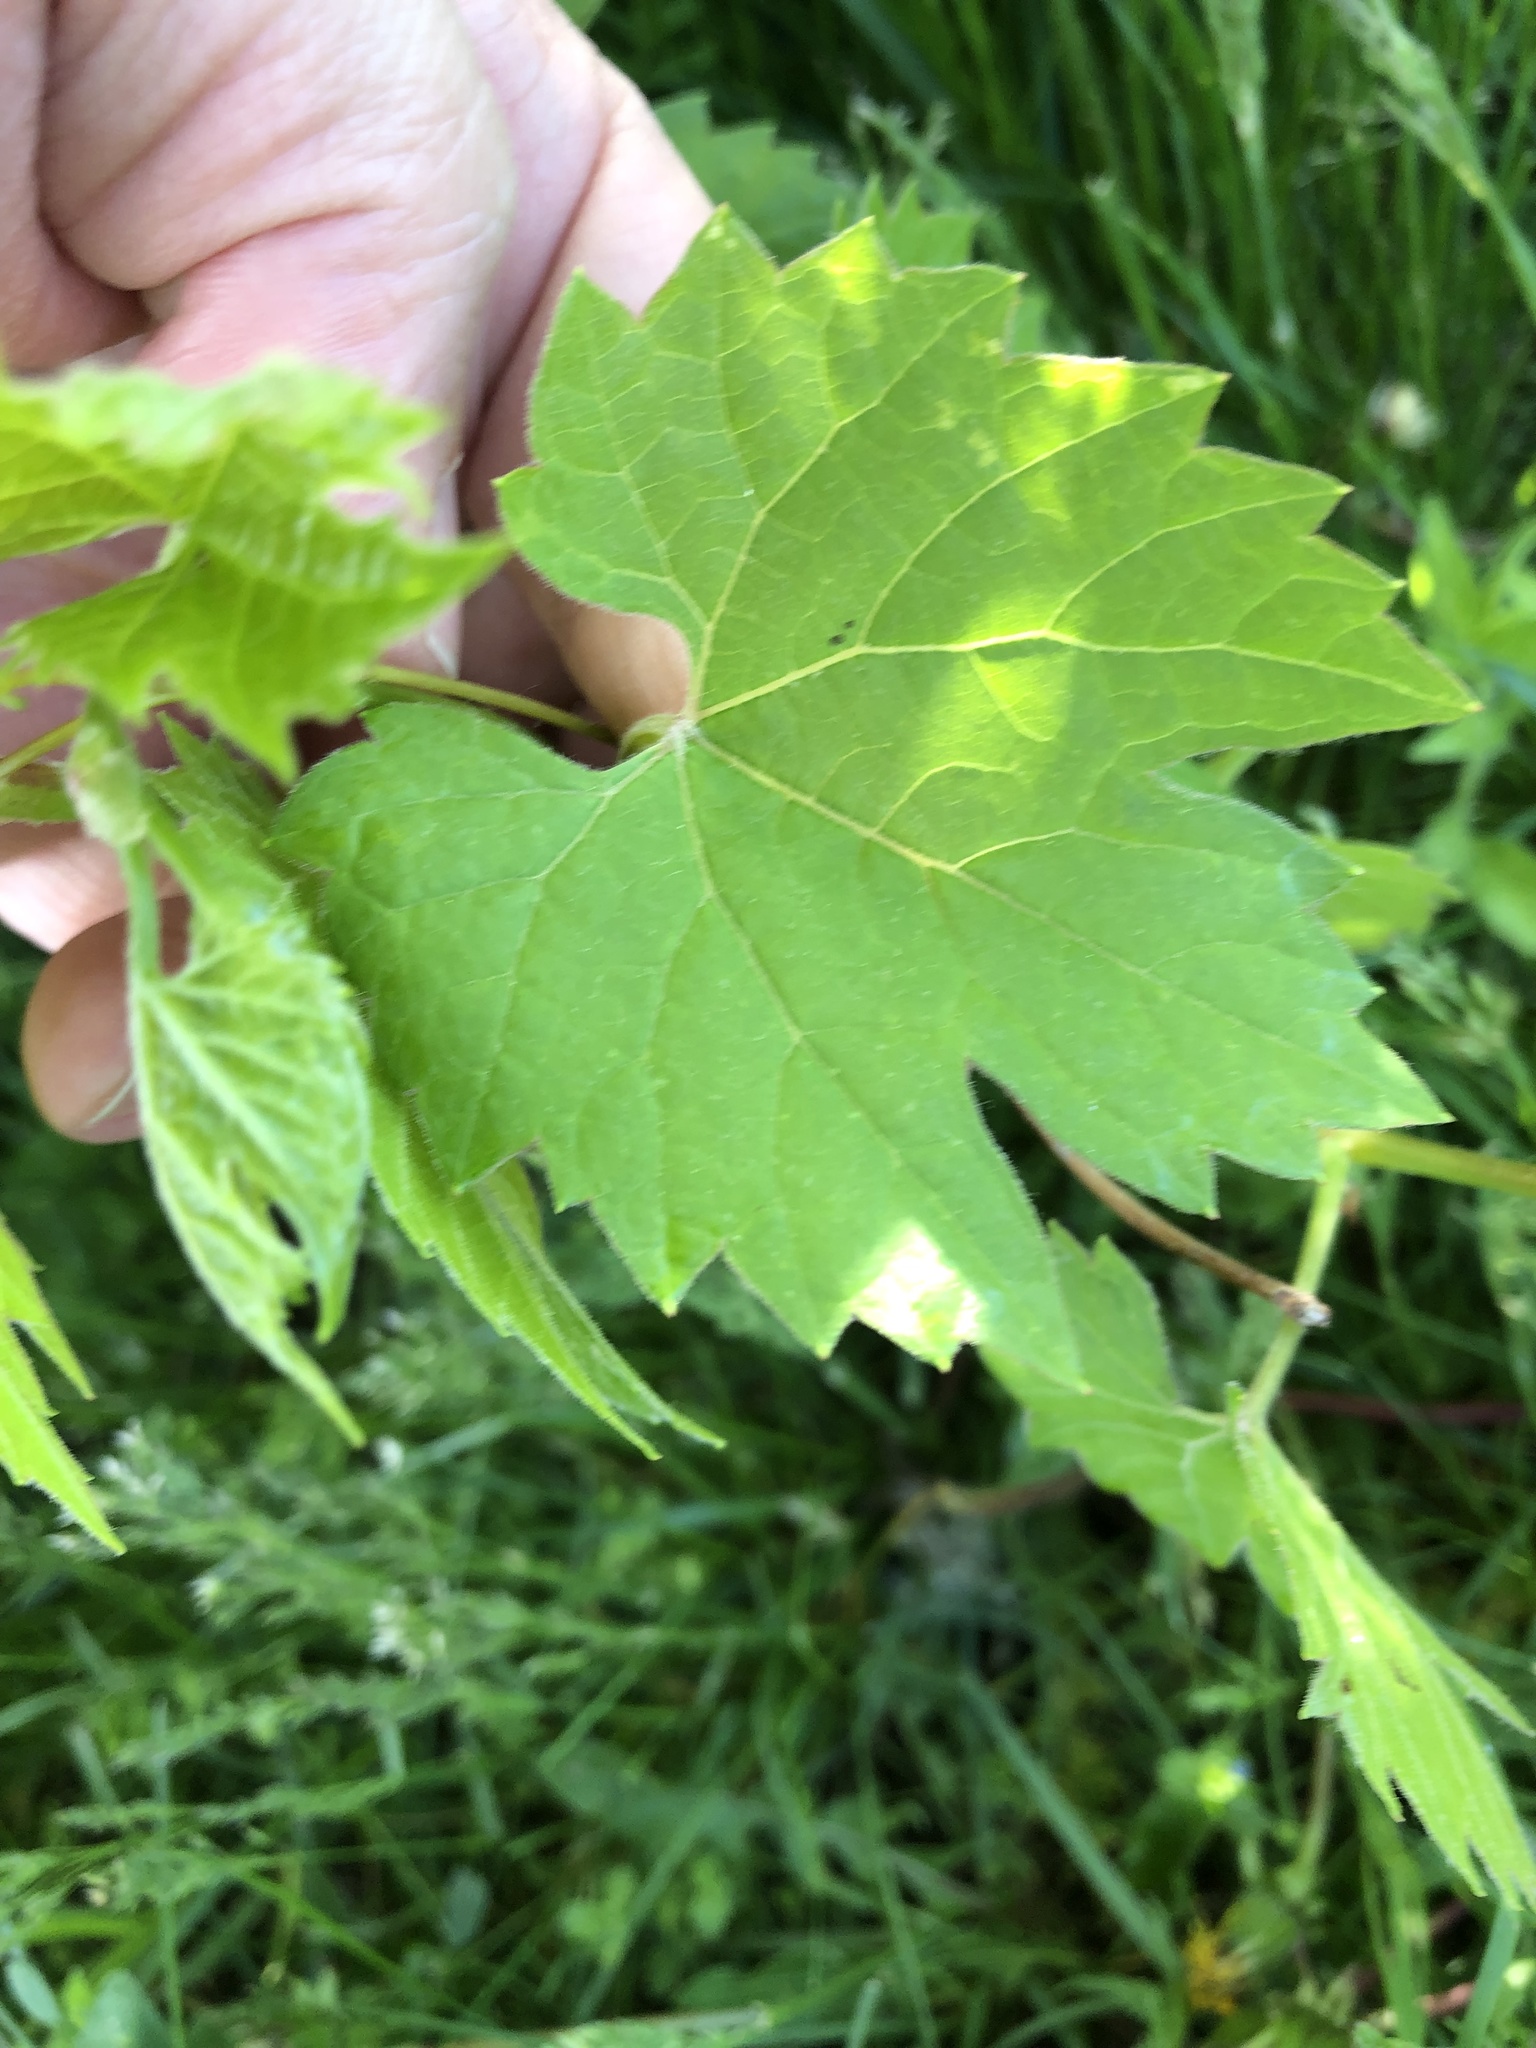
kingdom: Plantae
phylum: Tracheophyta
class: Magnoliopsida
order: Vitales
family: Vitaceae
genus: Vitis
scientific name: Vitis riparia
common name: Frost grape
